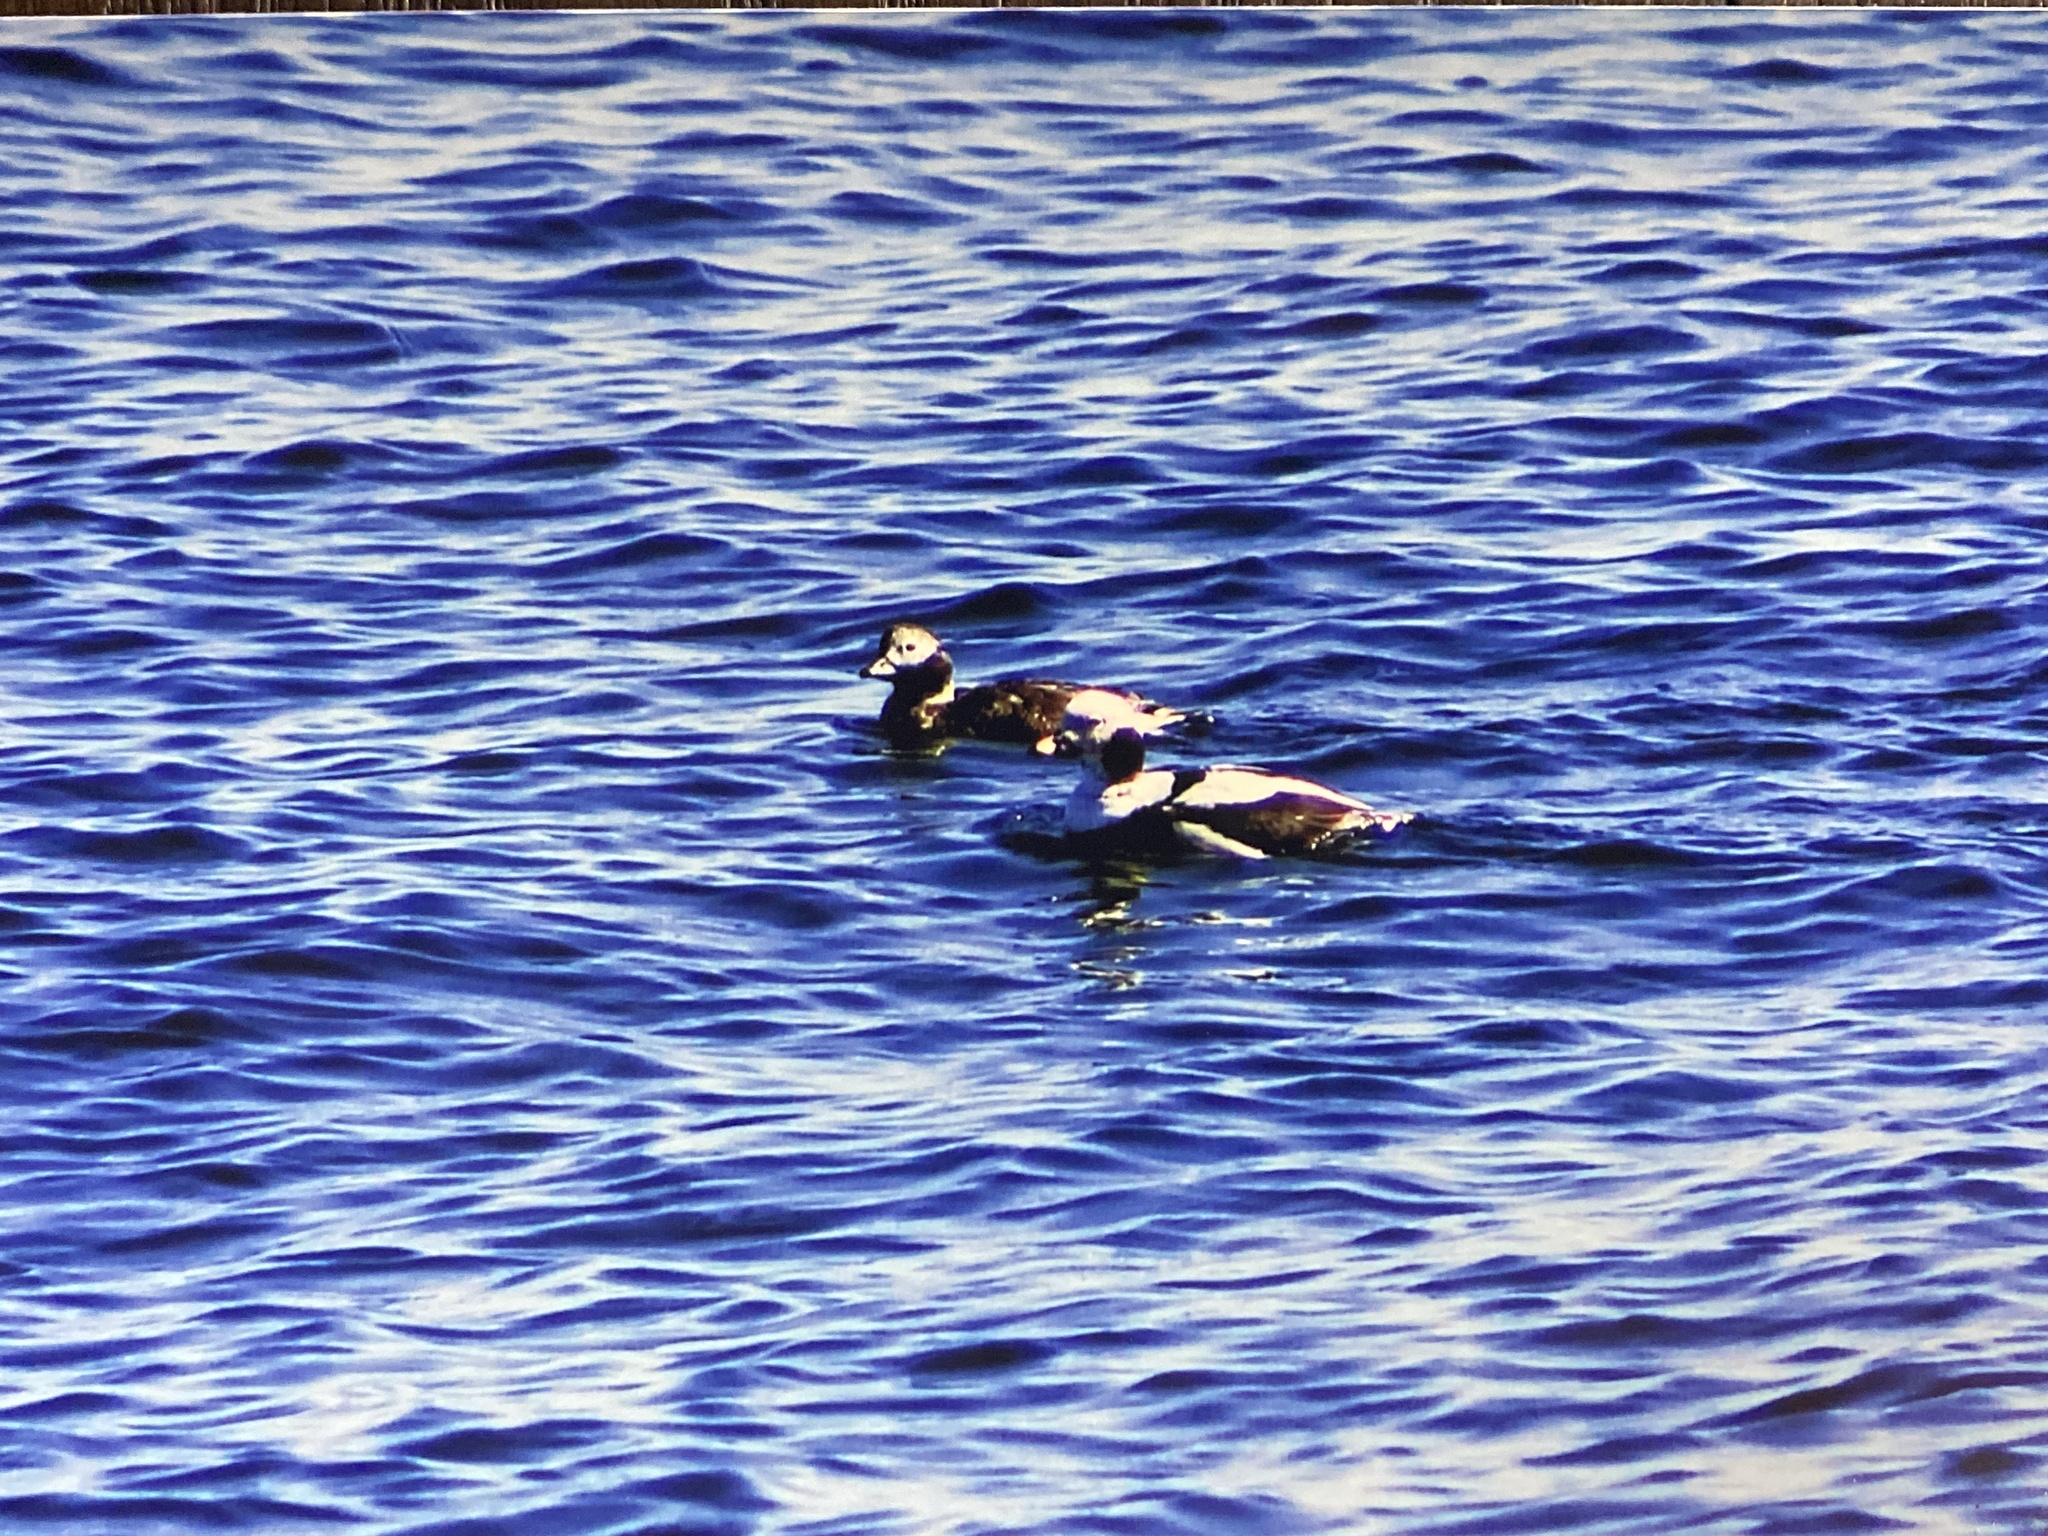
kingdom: Animalia
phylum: Chordata
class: Aves
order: Anseriformes
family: Anatidae
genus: Clangula
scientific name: Clangula hyemalis
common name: Long-tailed duck
